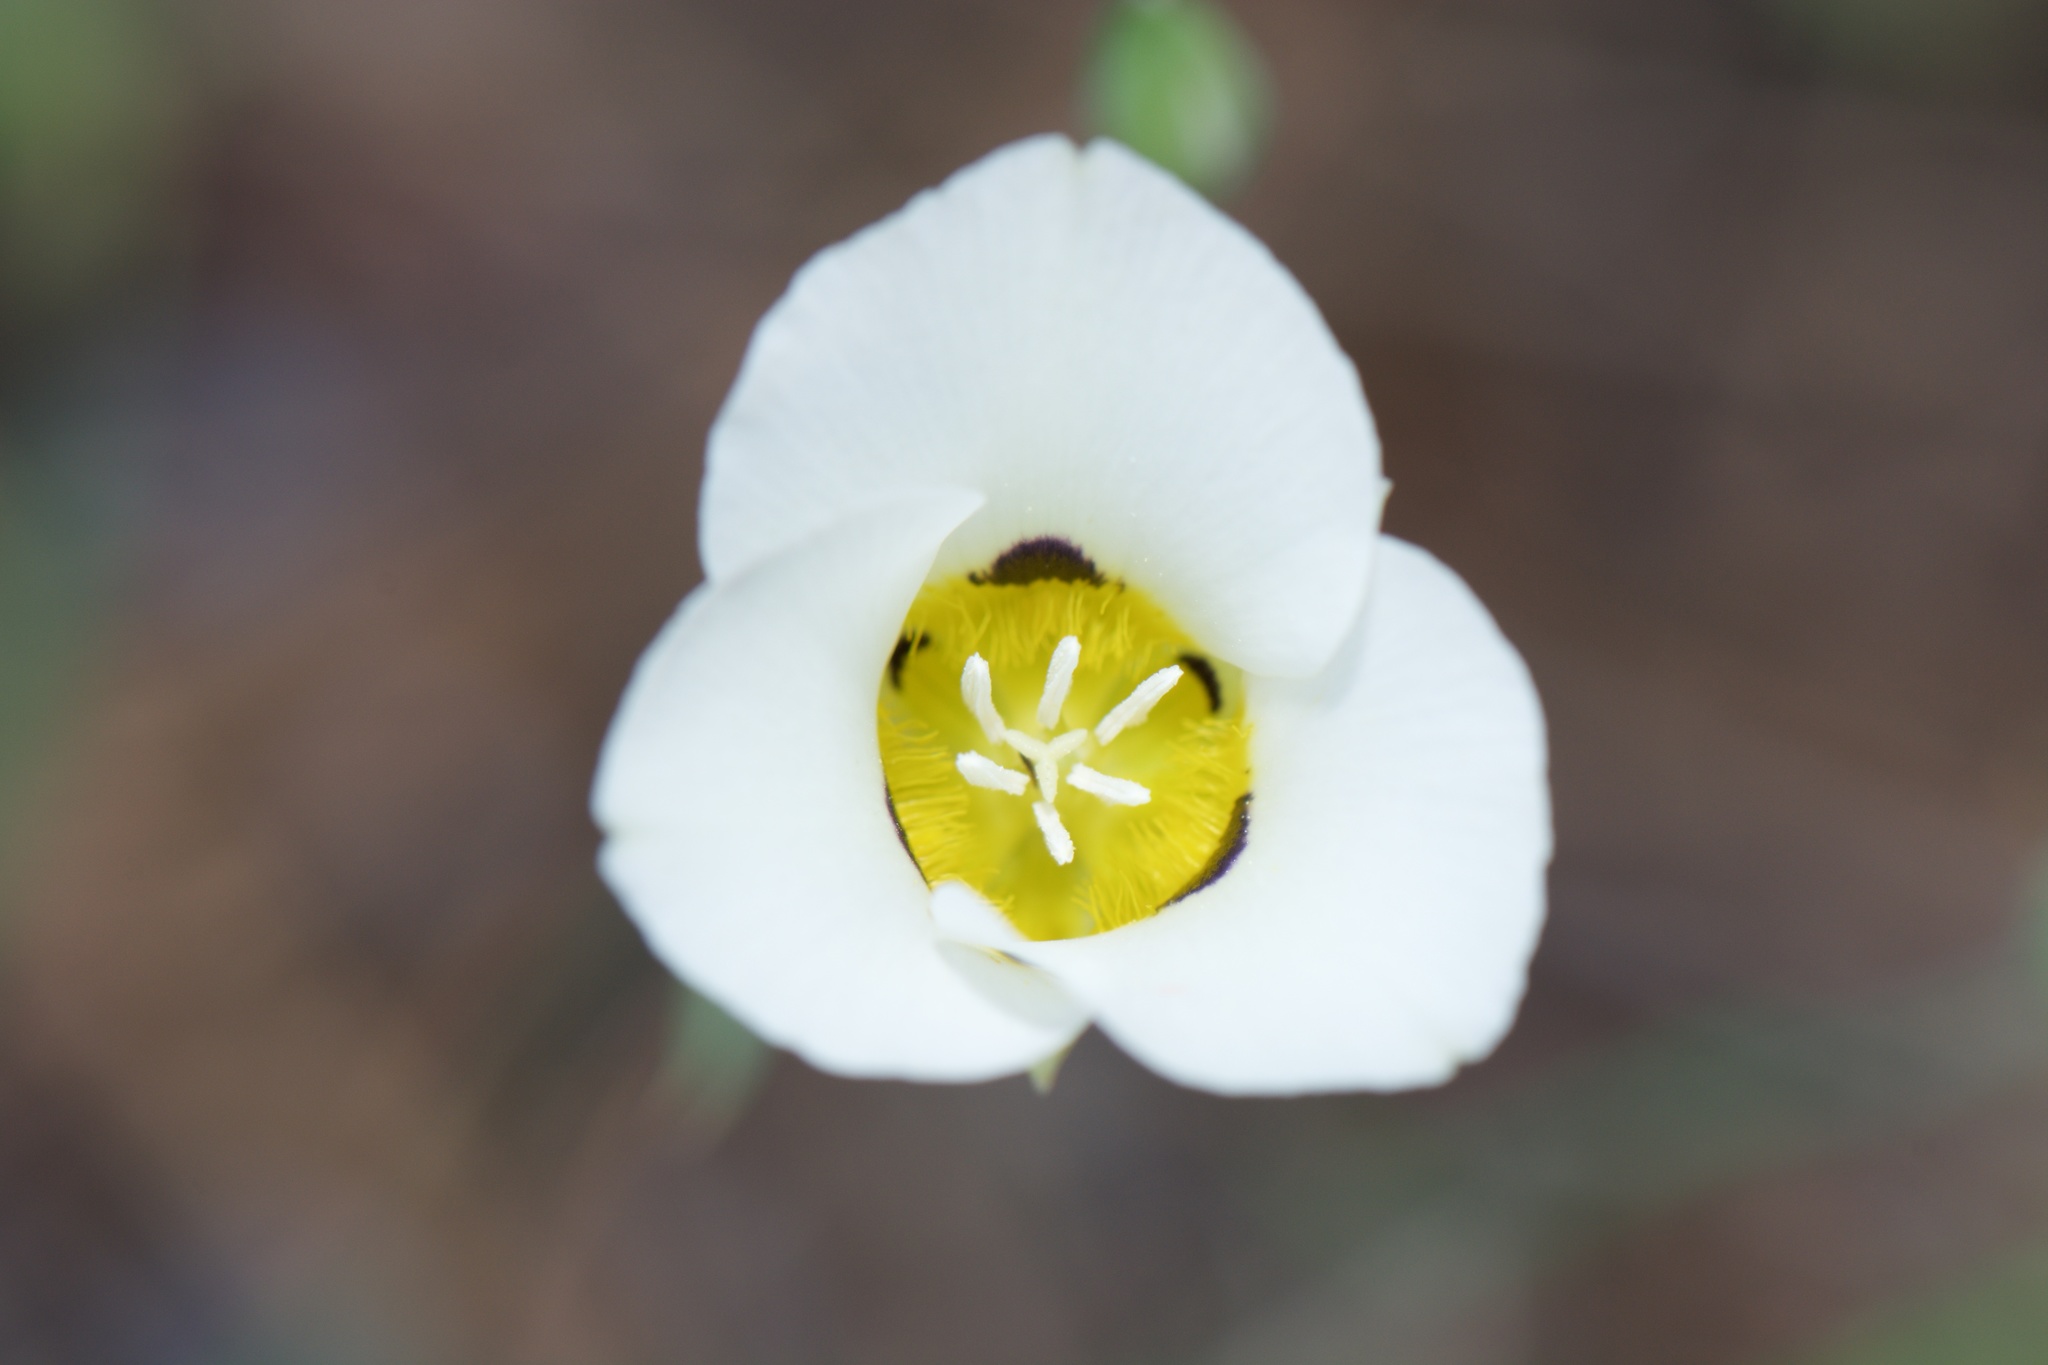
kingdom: Plantae
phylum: Tracheophyta
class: Liliopsida
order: Liliales
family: Liliaceae
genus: Calochortus
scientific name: Calochortus leichtlinii
